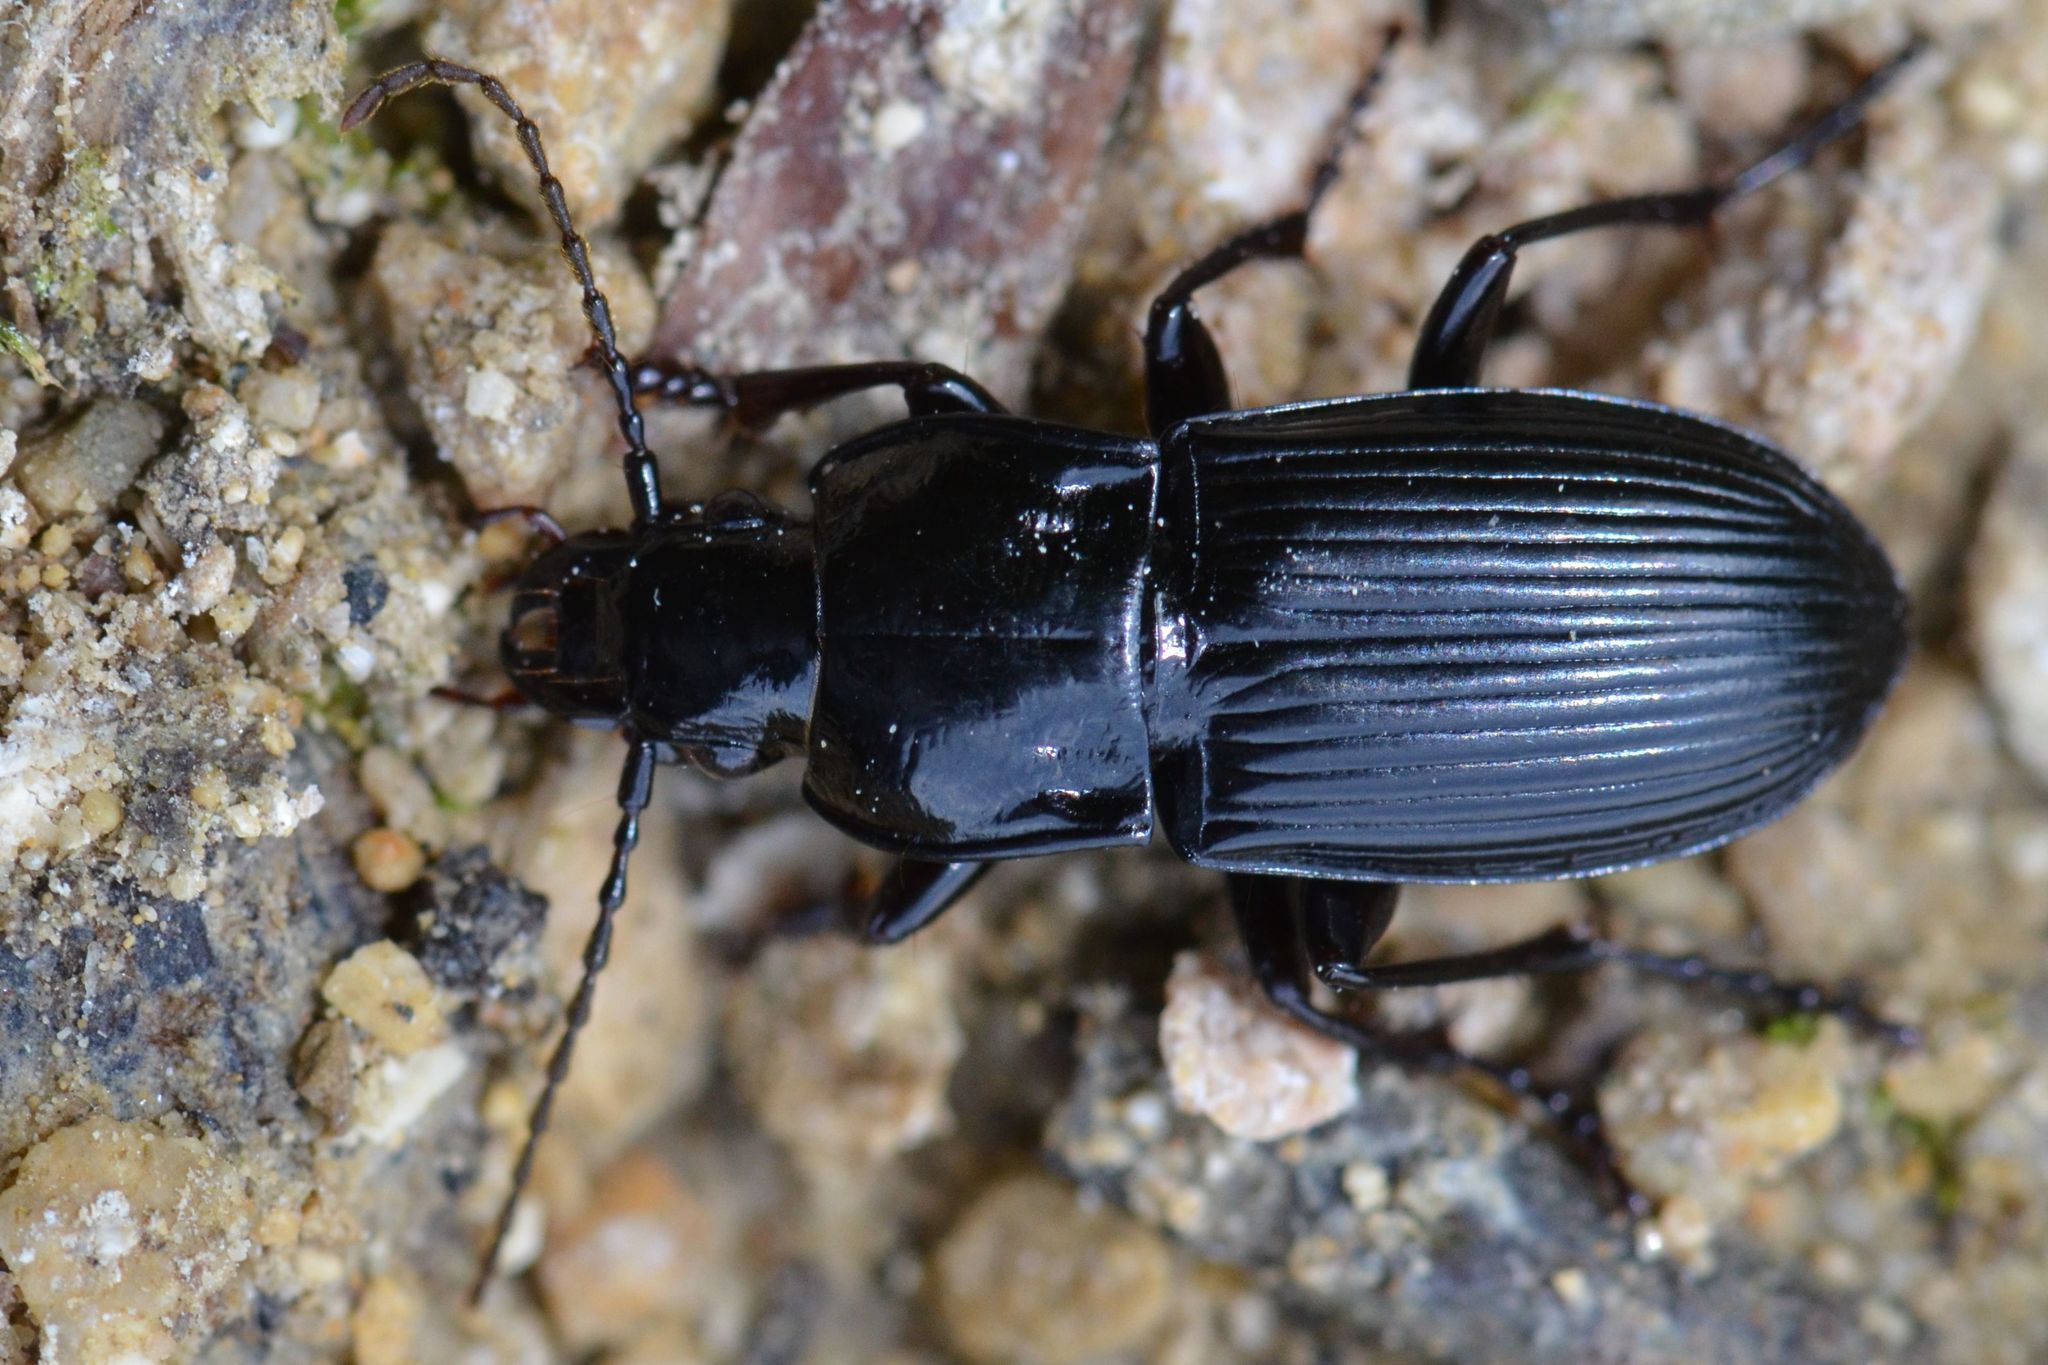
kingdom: Animalia
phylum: Arthropoda
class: Insecta
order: Coleoptera
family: Carabidae
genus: Abax
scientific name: Abax parallelus
